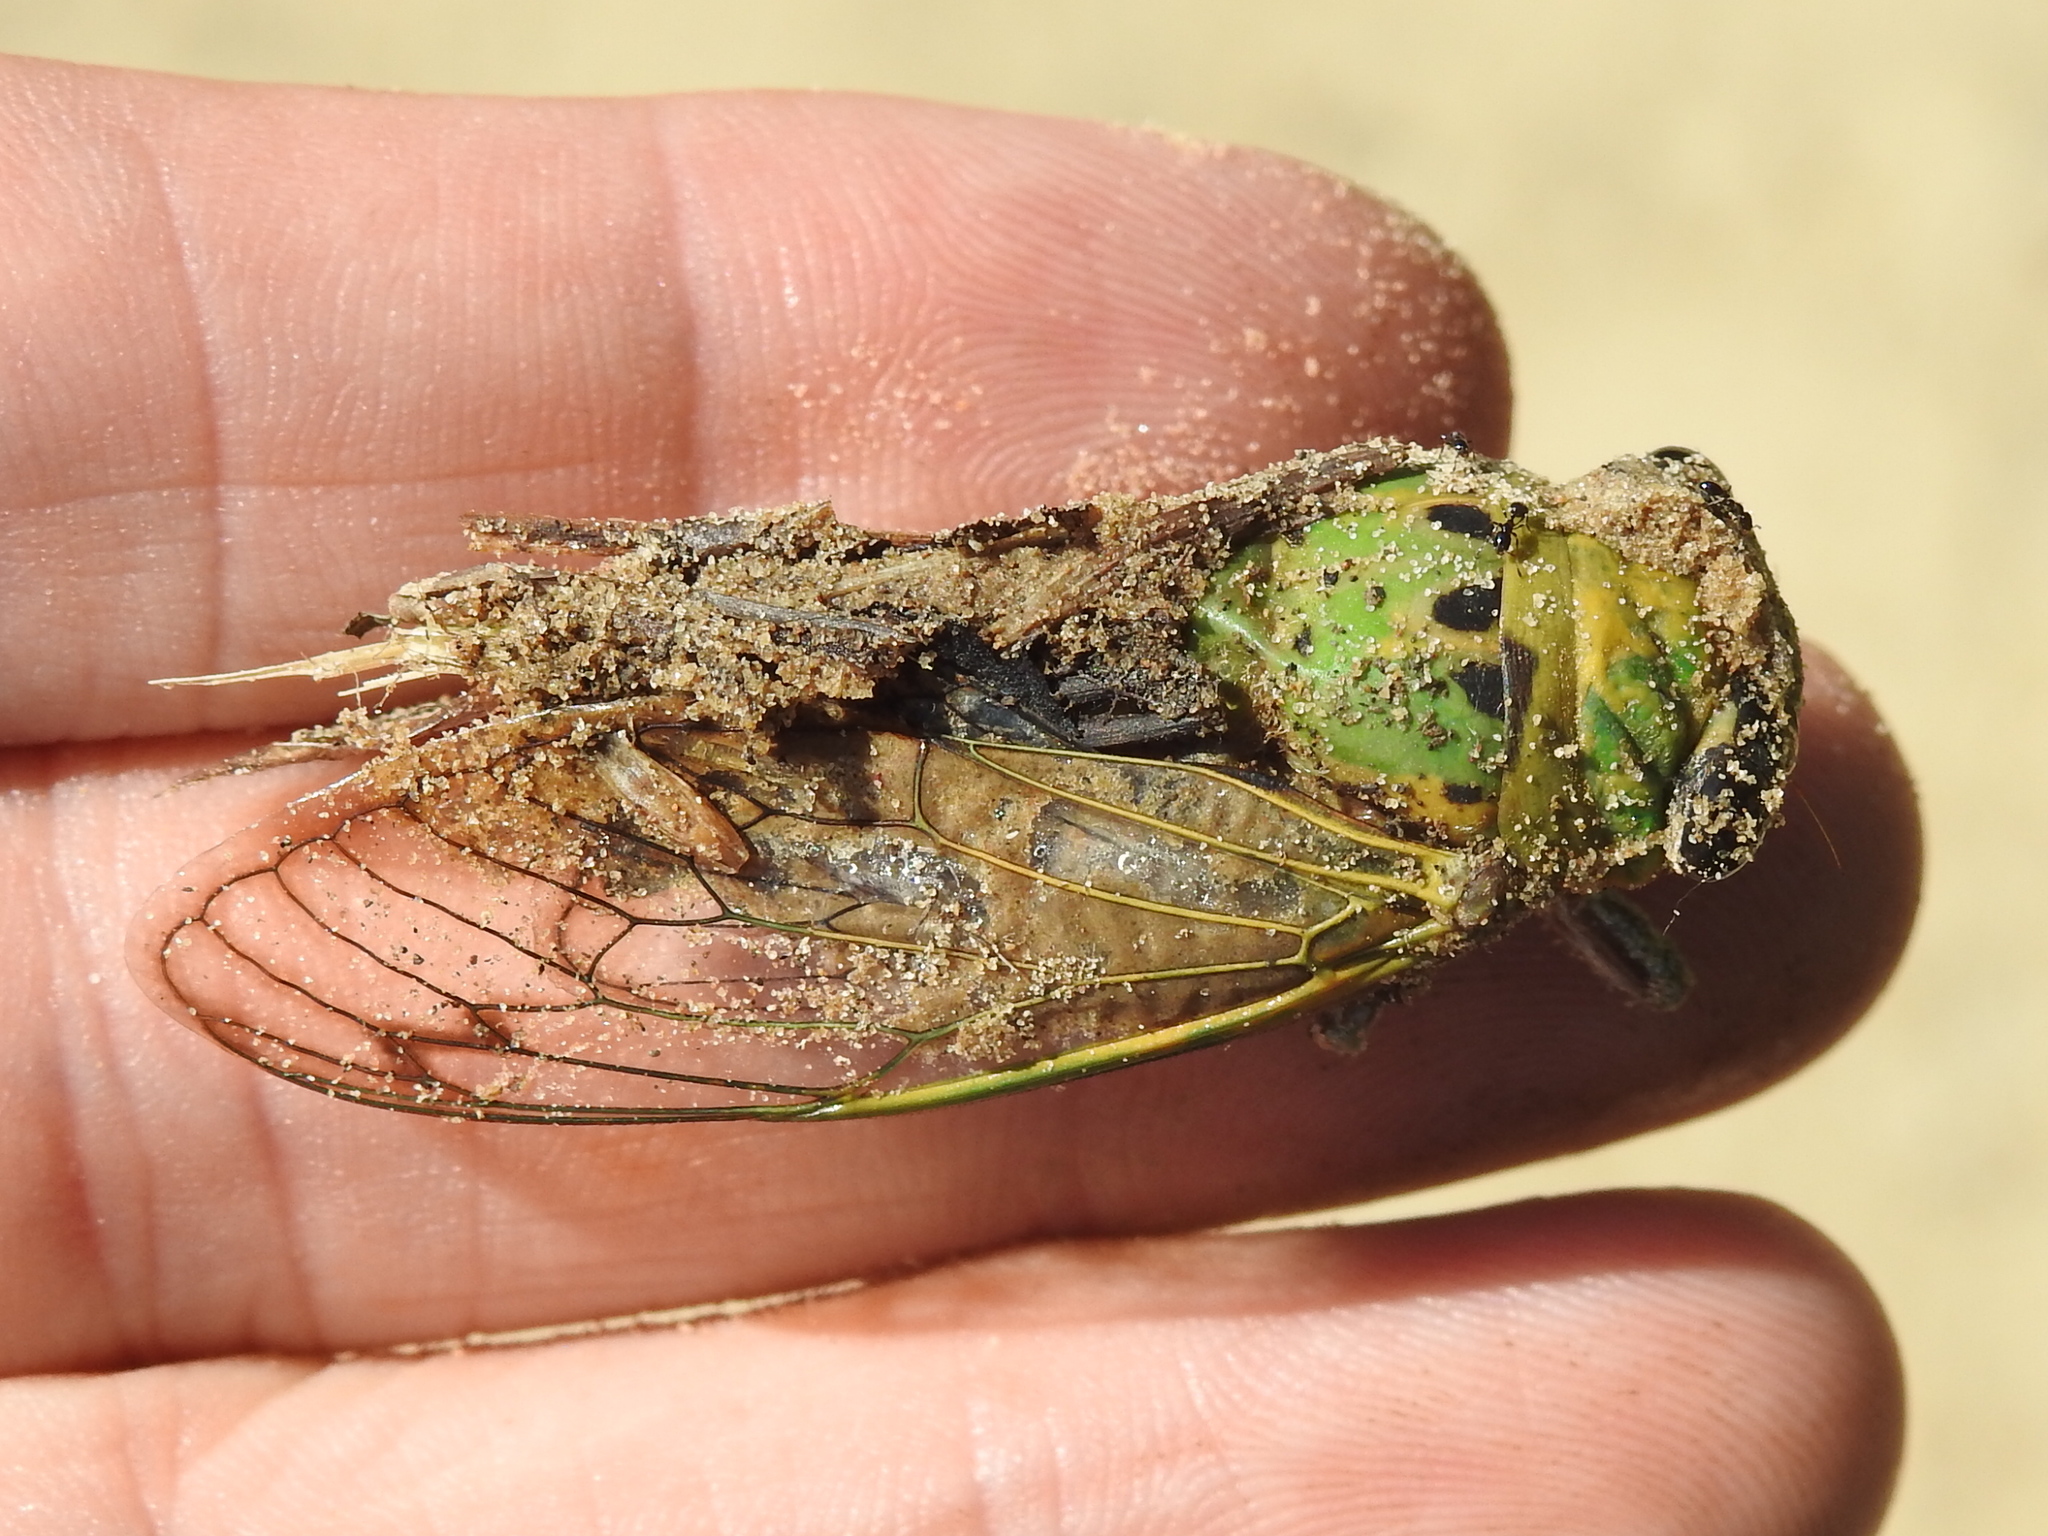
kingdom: Animalia
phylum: Arthropoda
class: Insecta
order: Hemiptera
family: Cicadidae
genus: Neotibicen
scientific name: Neotibicen superbus
